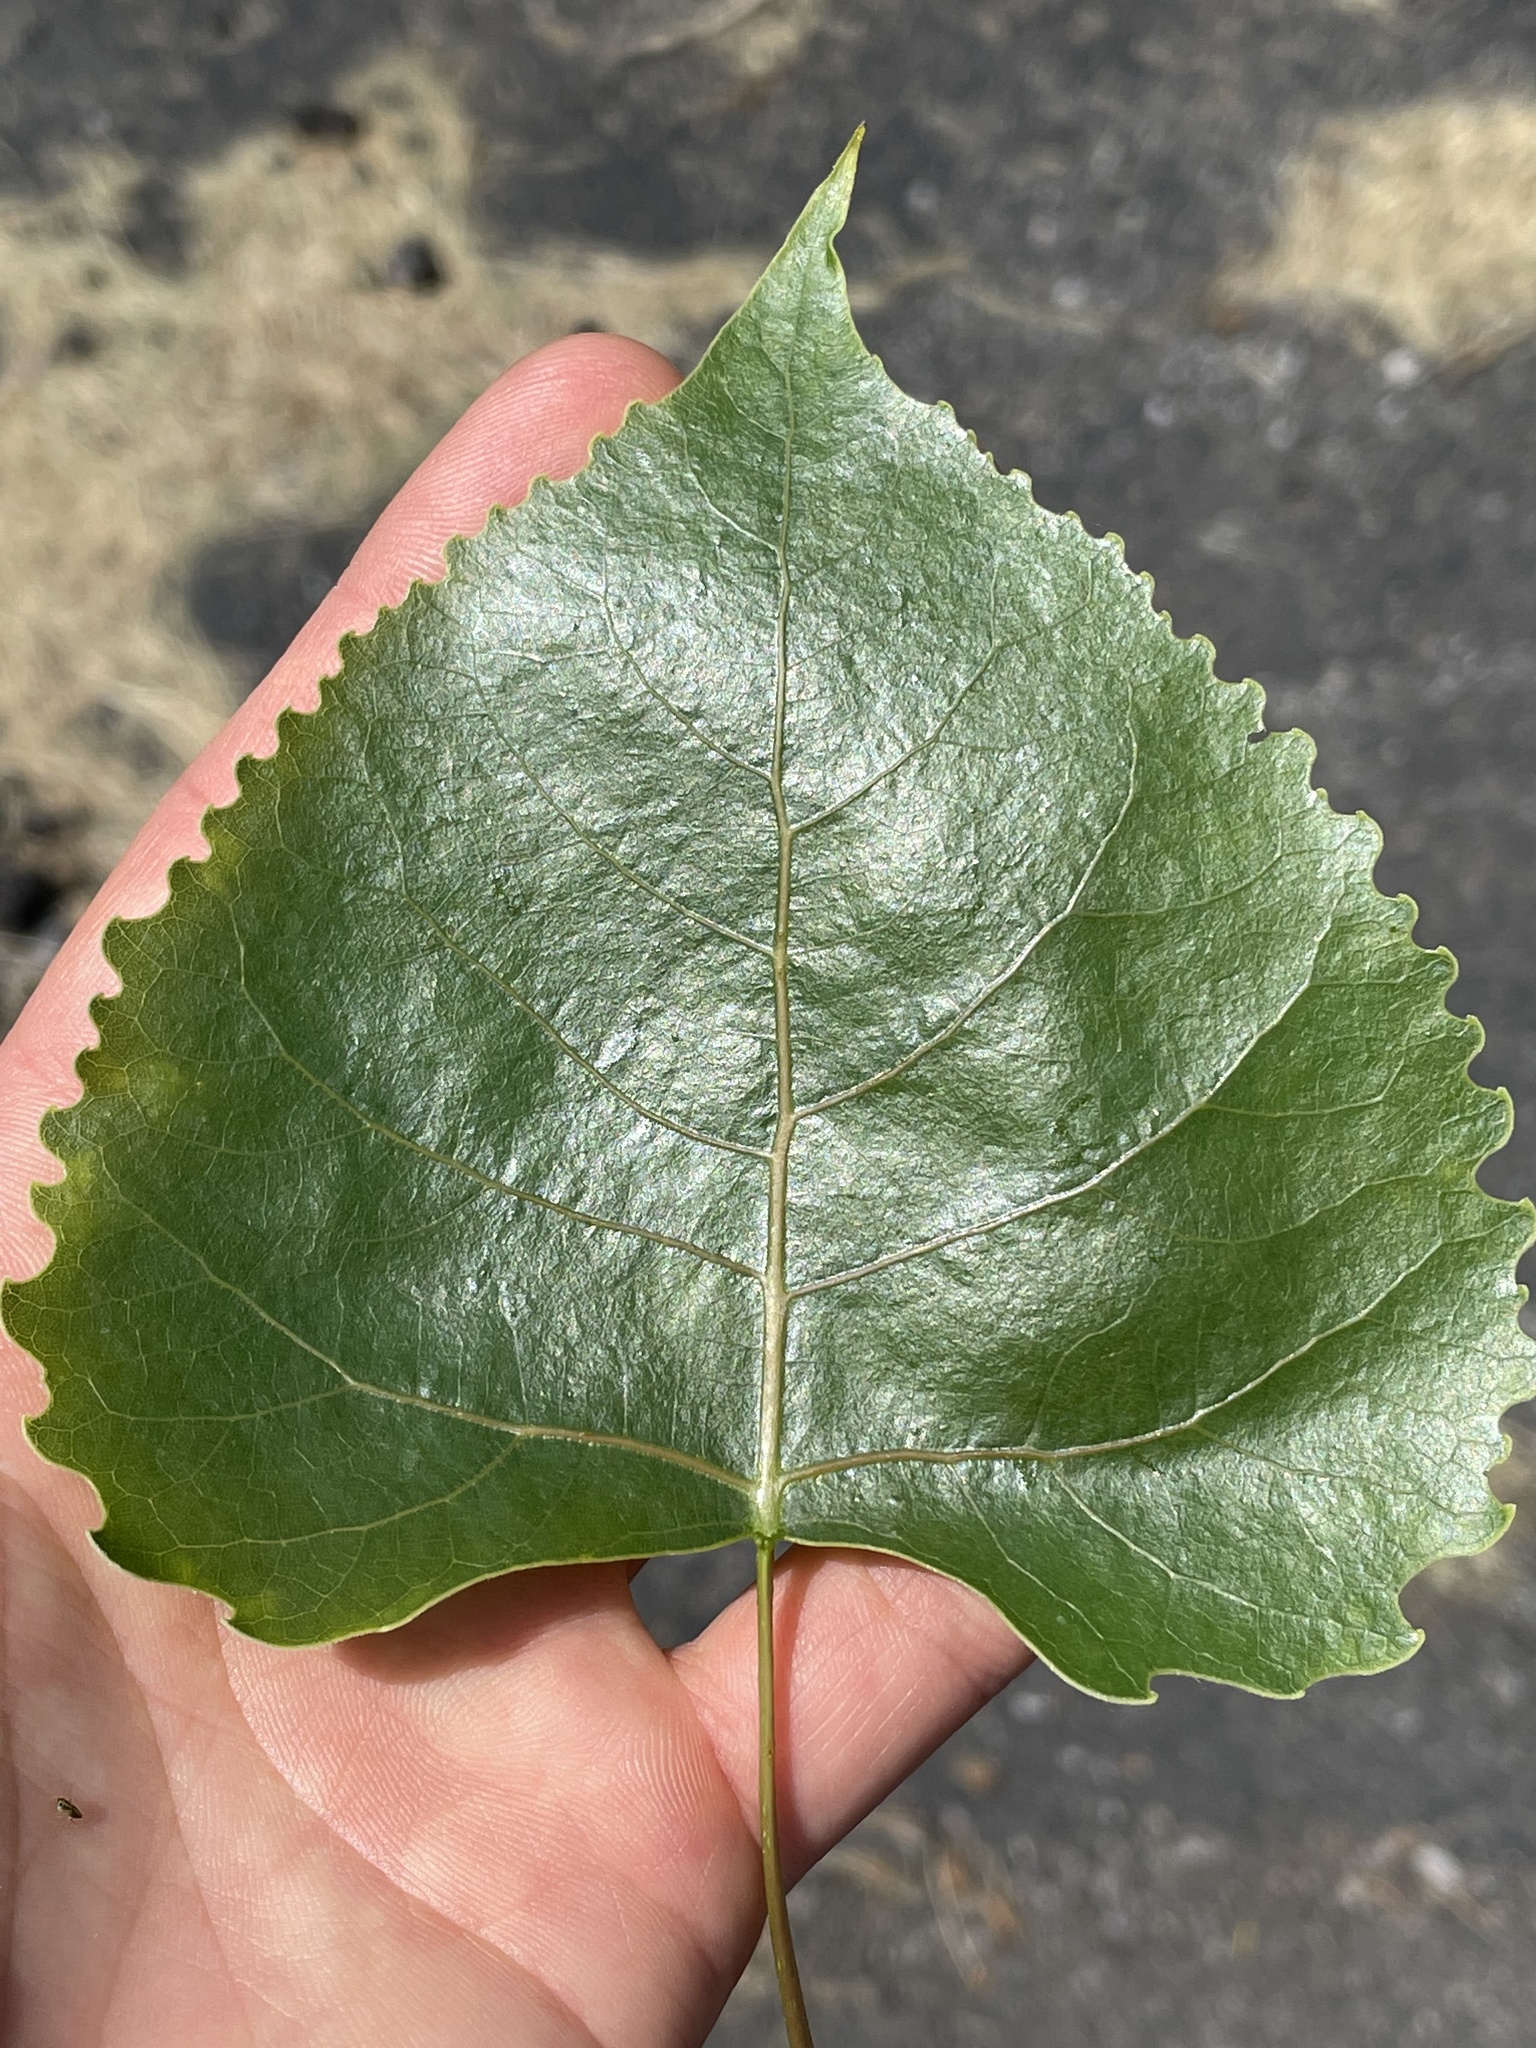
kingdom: Plantae
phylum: Tracheophyta
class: Magnoliopsida
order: Malpighiales
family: Salicaceae
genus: Populus
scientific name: Populus deltoides
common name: Eastern cottonwood
